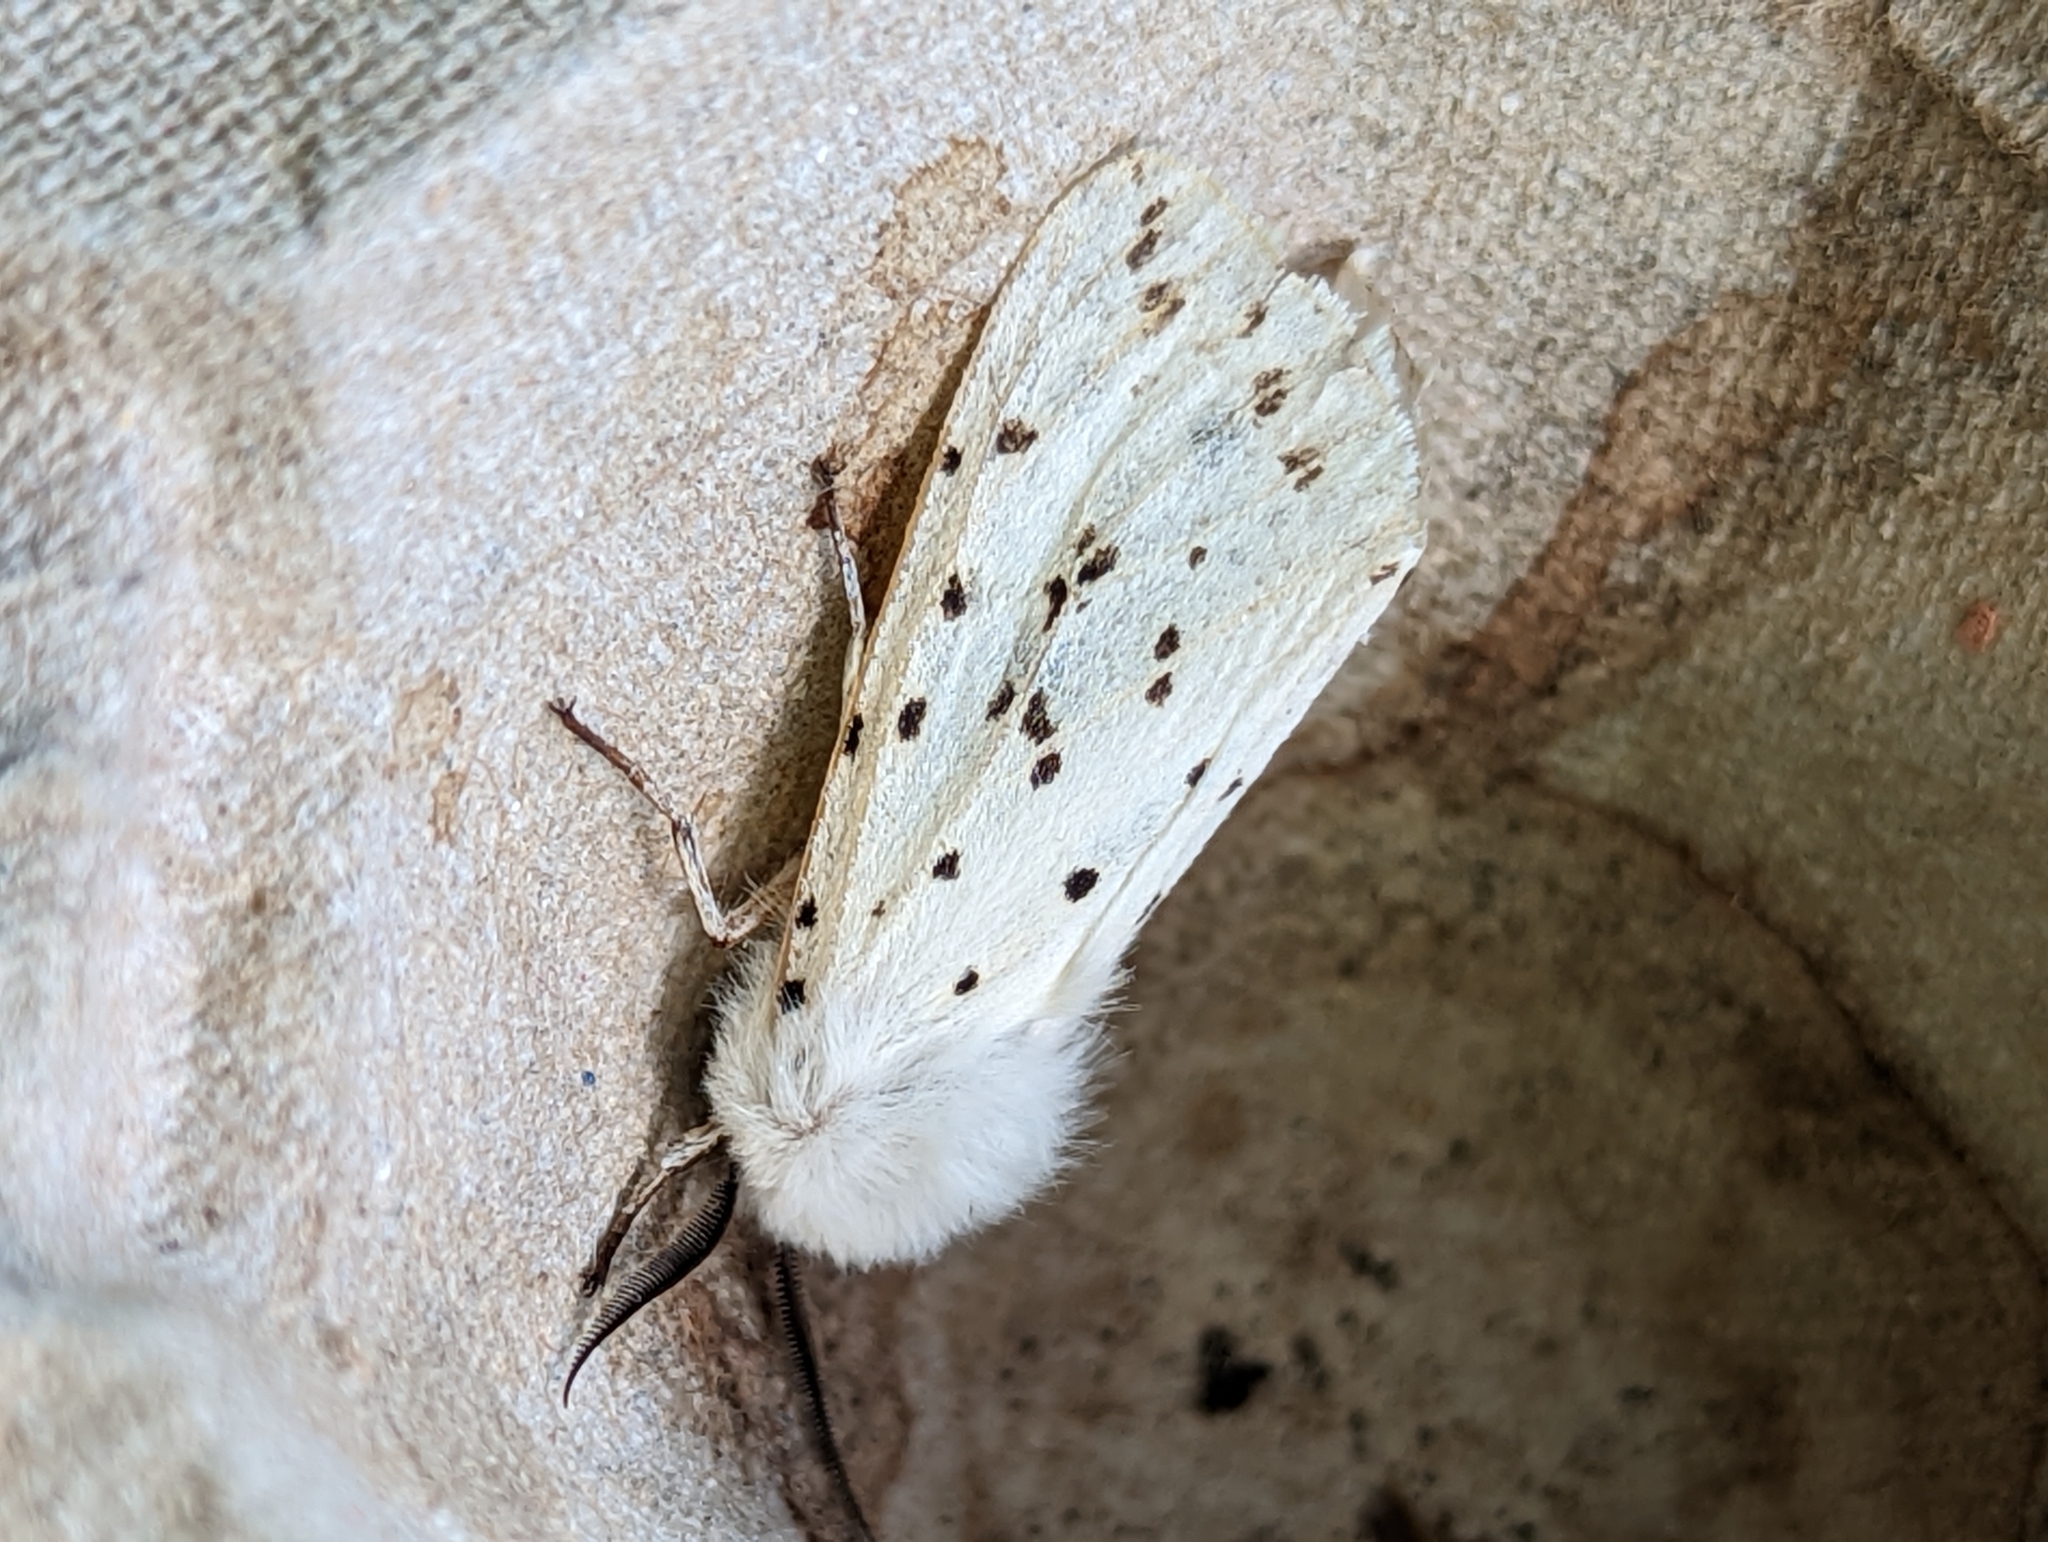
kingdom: Animalia
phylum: Arthropoda
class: Insecta
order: Lepidoptera
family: Erebidae
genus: Spilosoma
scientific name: Spilosoma lubricipeda
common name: White ermine
